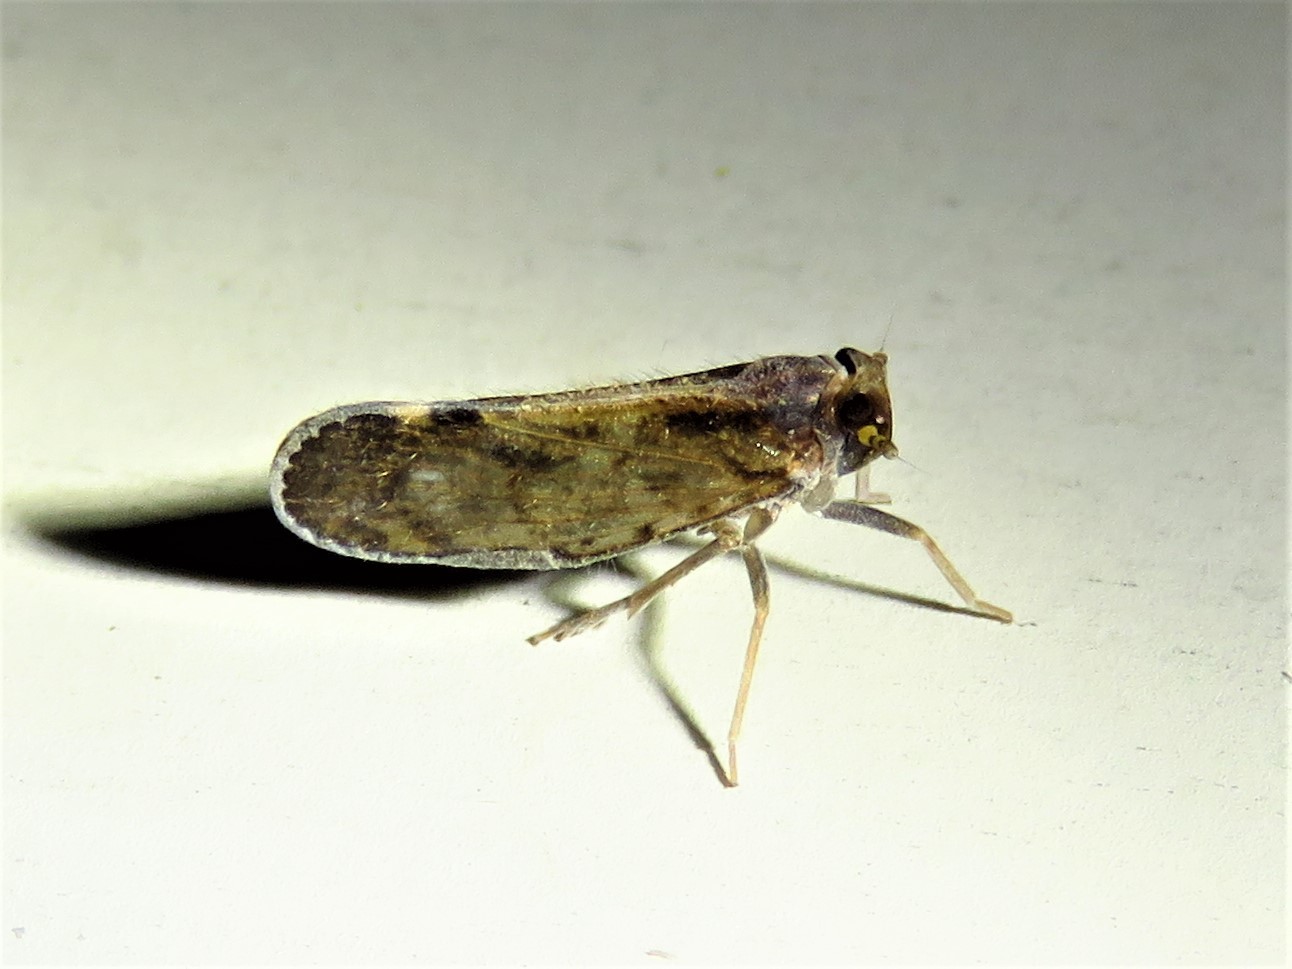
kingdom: Animalia
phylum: Arthropoda
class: Insecta
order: Hemiptera
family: Cixiidae
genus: Pintalia
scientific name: Pintalia vibex
